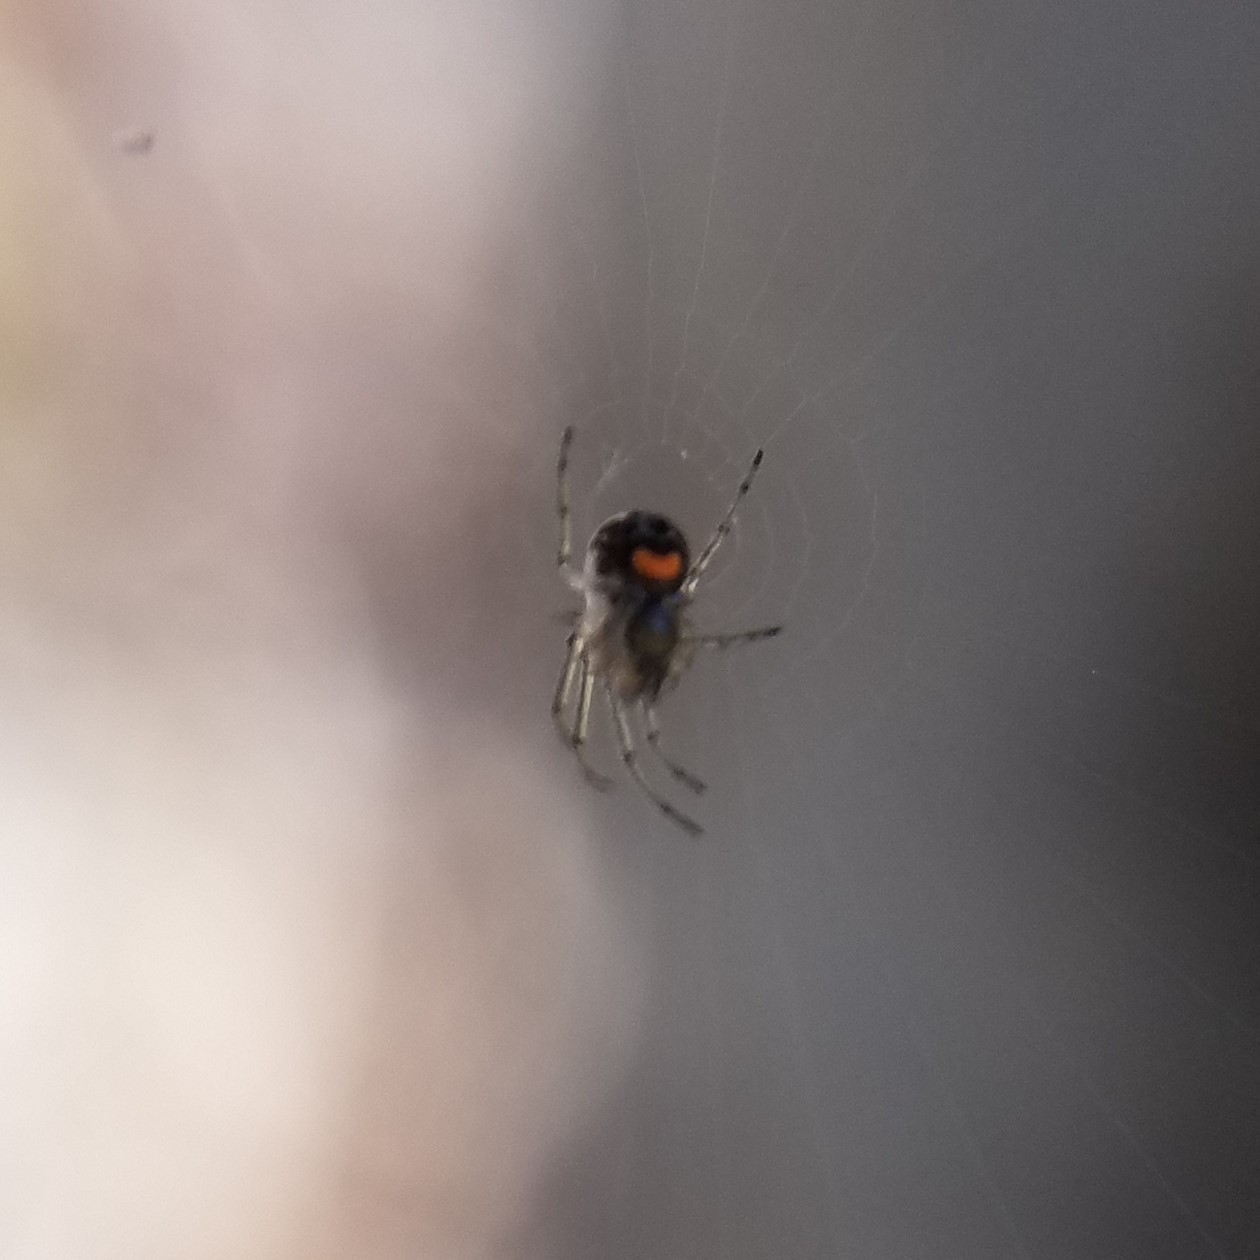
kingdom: Animalia
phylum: Arthropoda
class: Arachnida
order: Araneae
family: Tetragnathidae
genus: Leucauge
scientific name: Leucauge venusta
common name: Longjawed orb weavers
